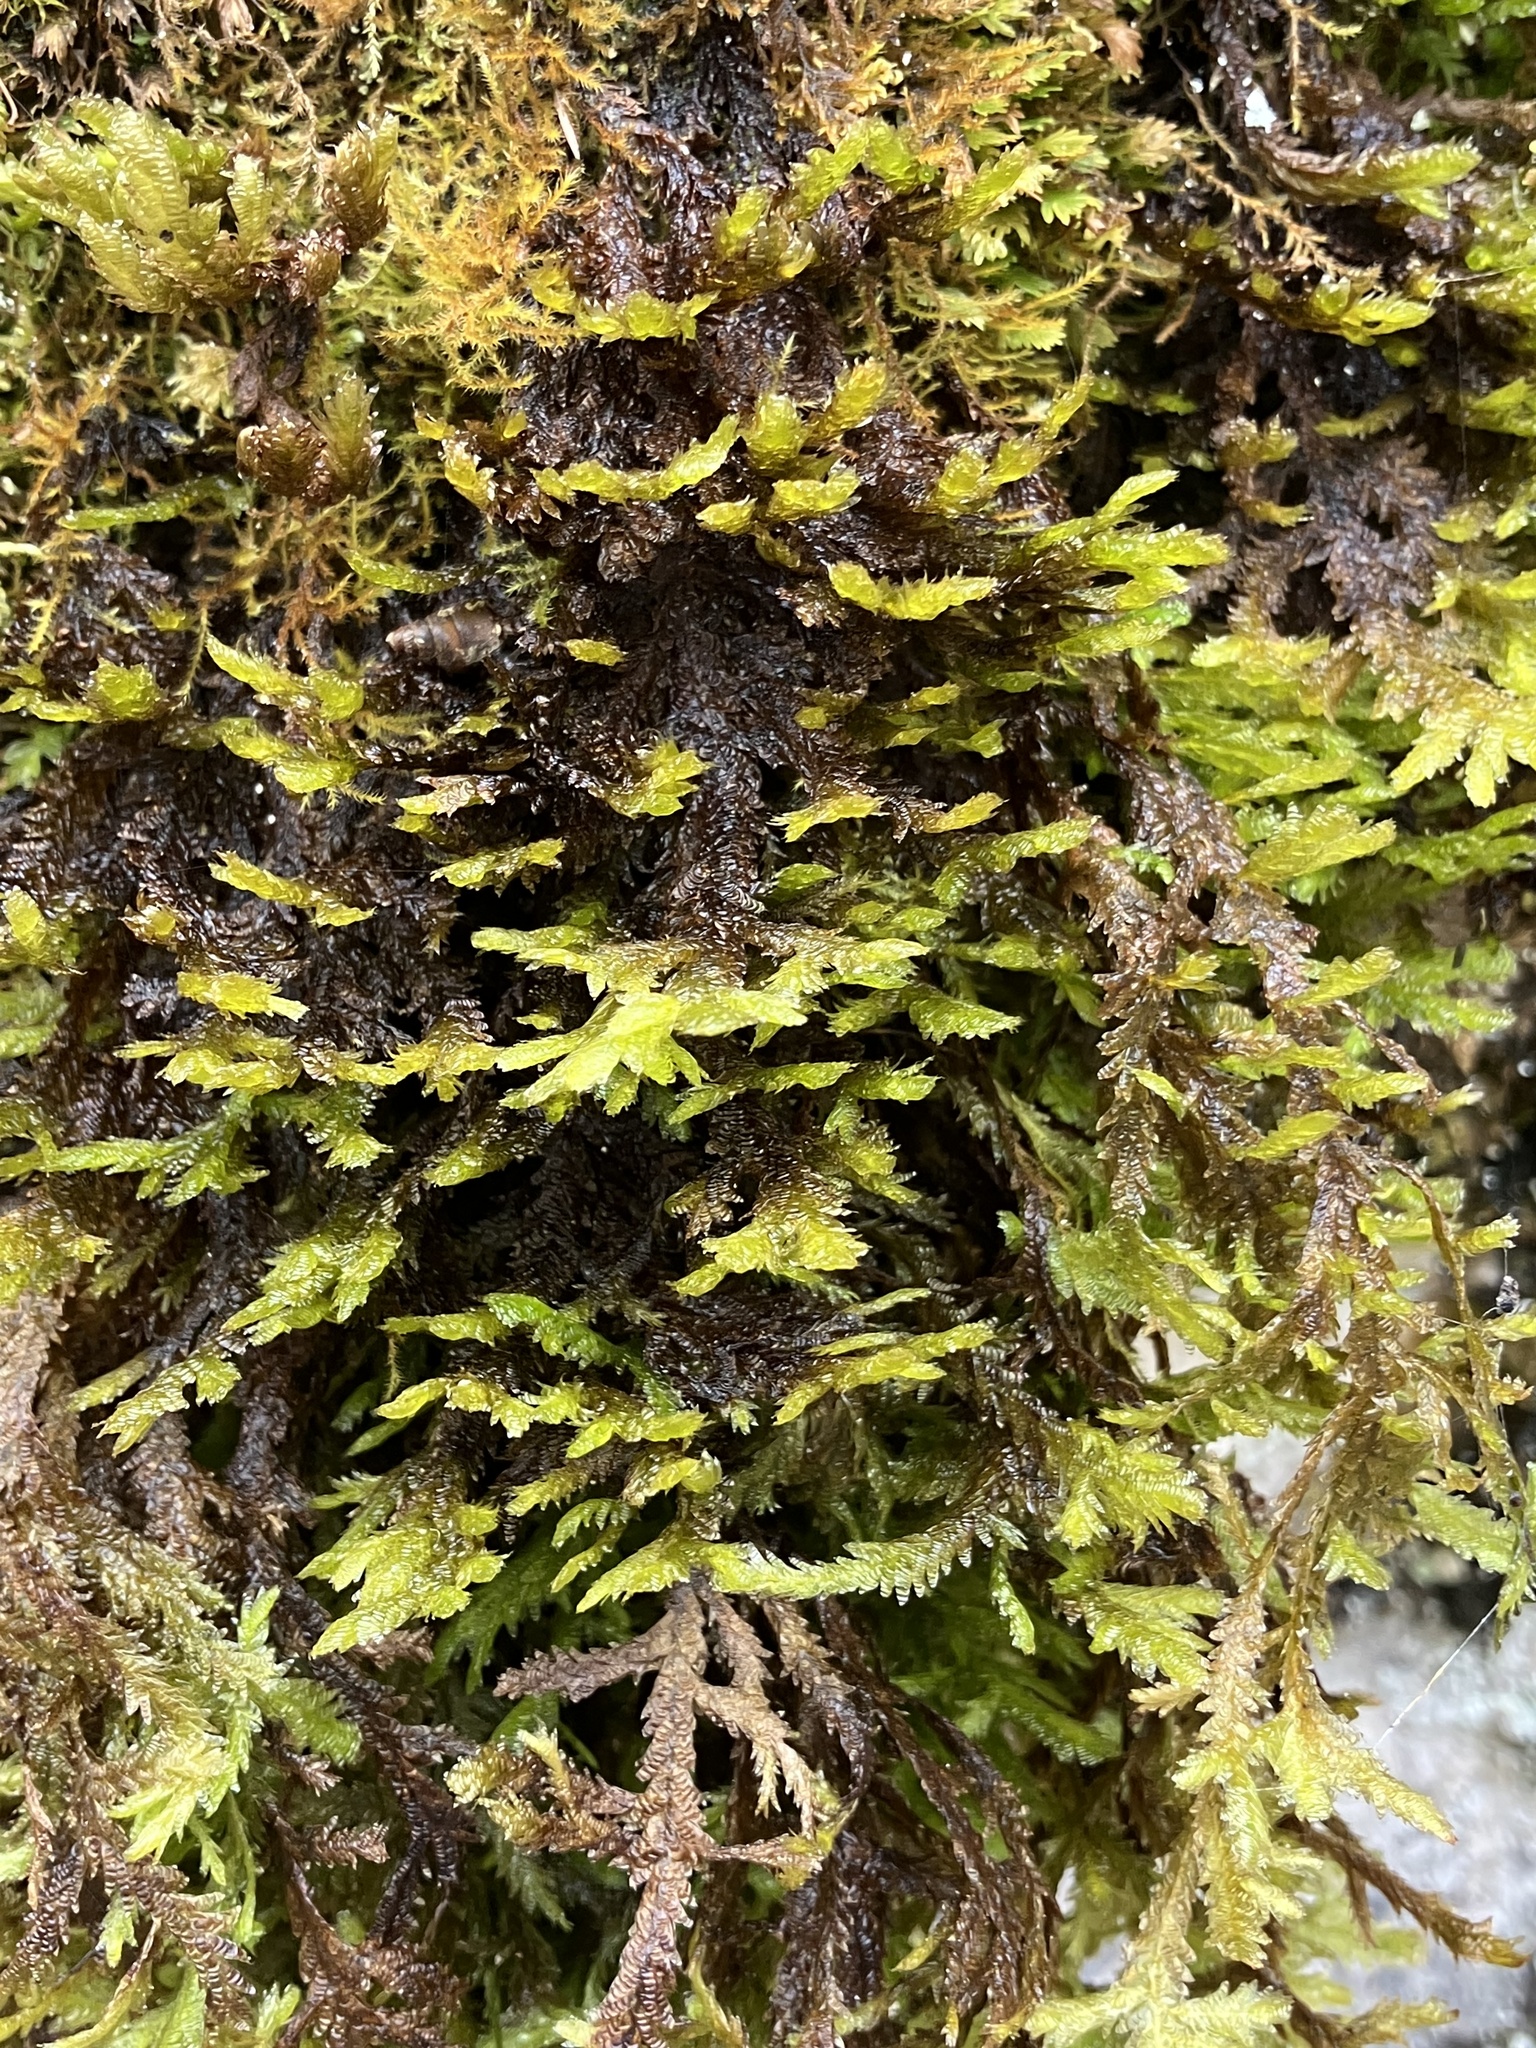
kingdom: Plantae
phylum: Bryophyta
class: Bryopsida
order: Hypnales
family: Neckeraceae
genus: Exsertotheca
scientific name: Exsertotheca crispa
